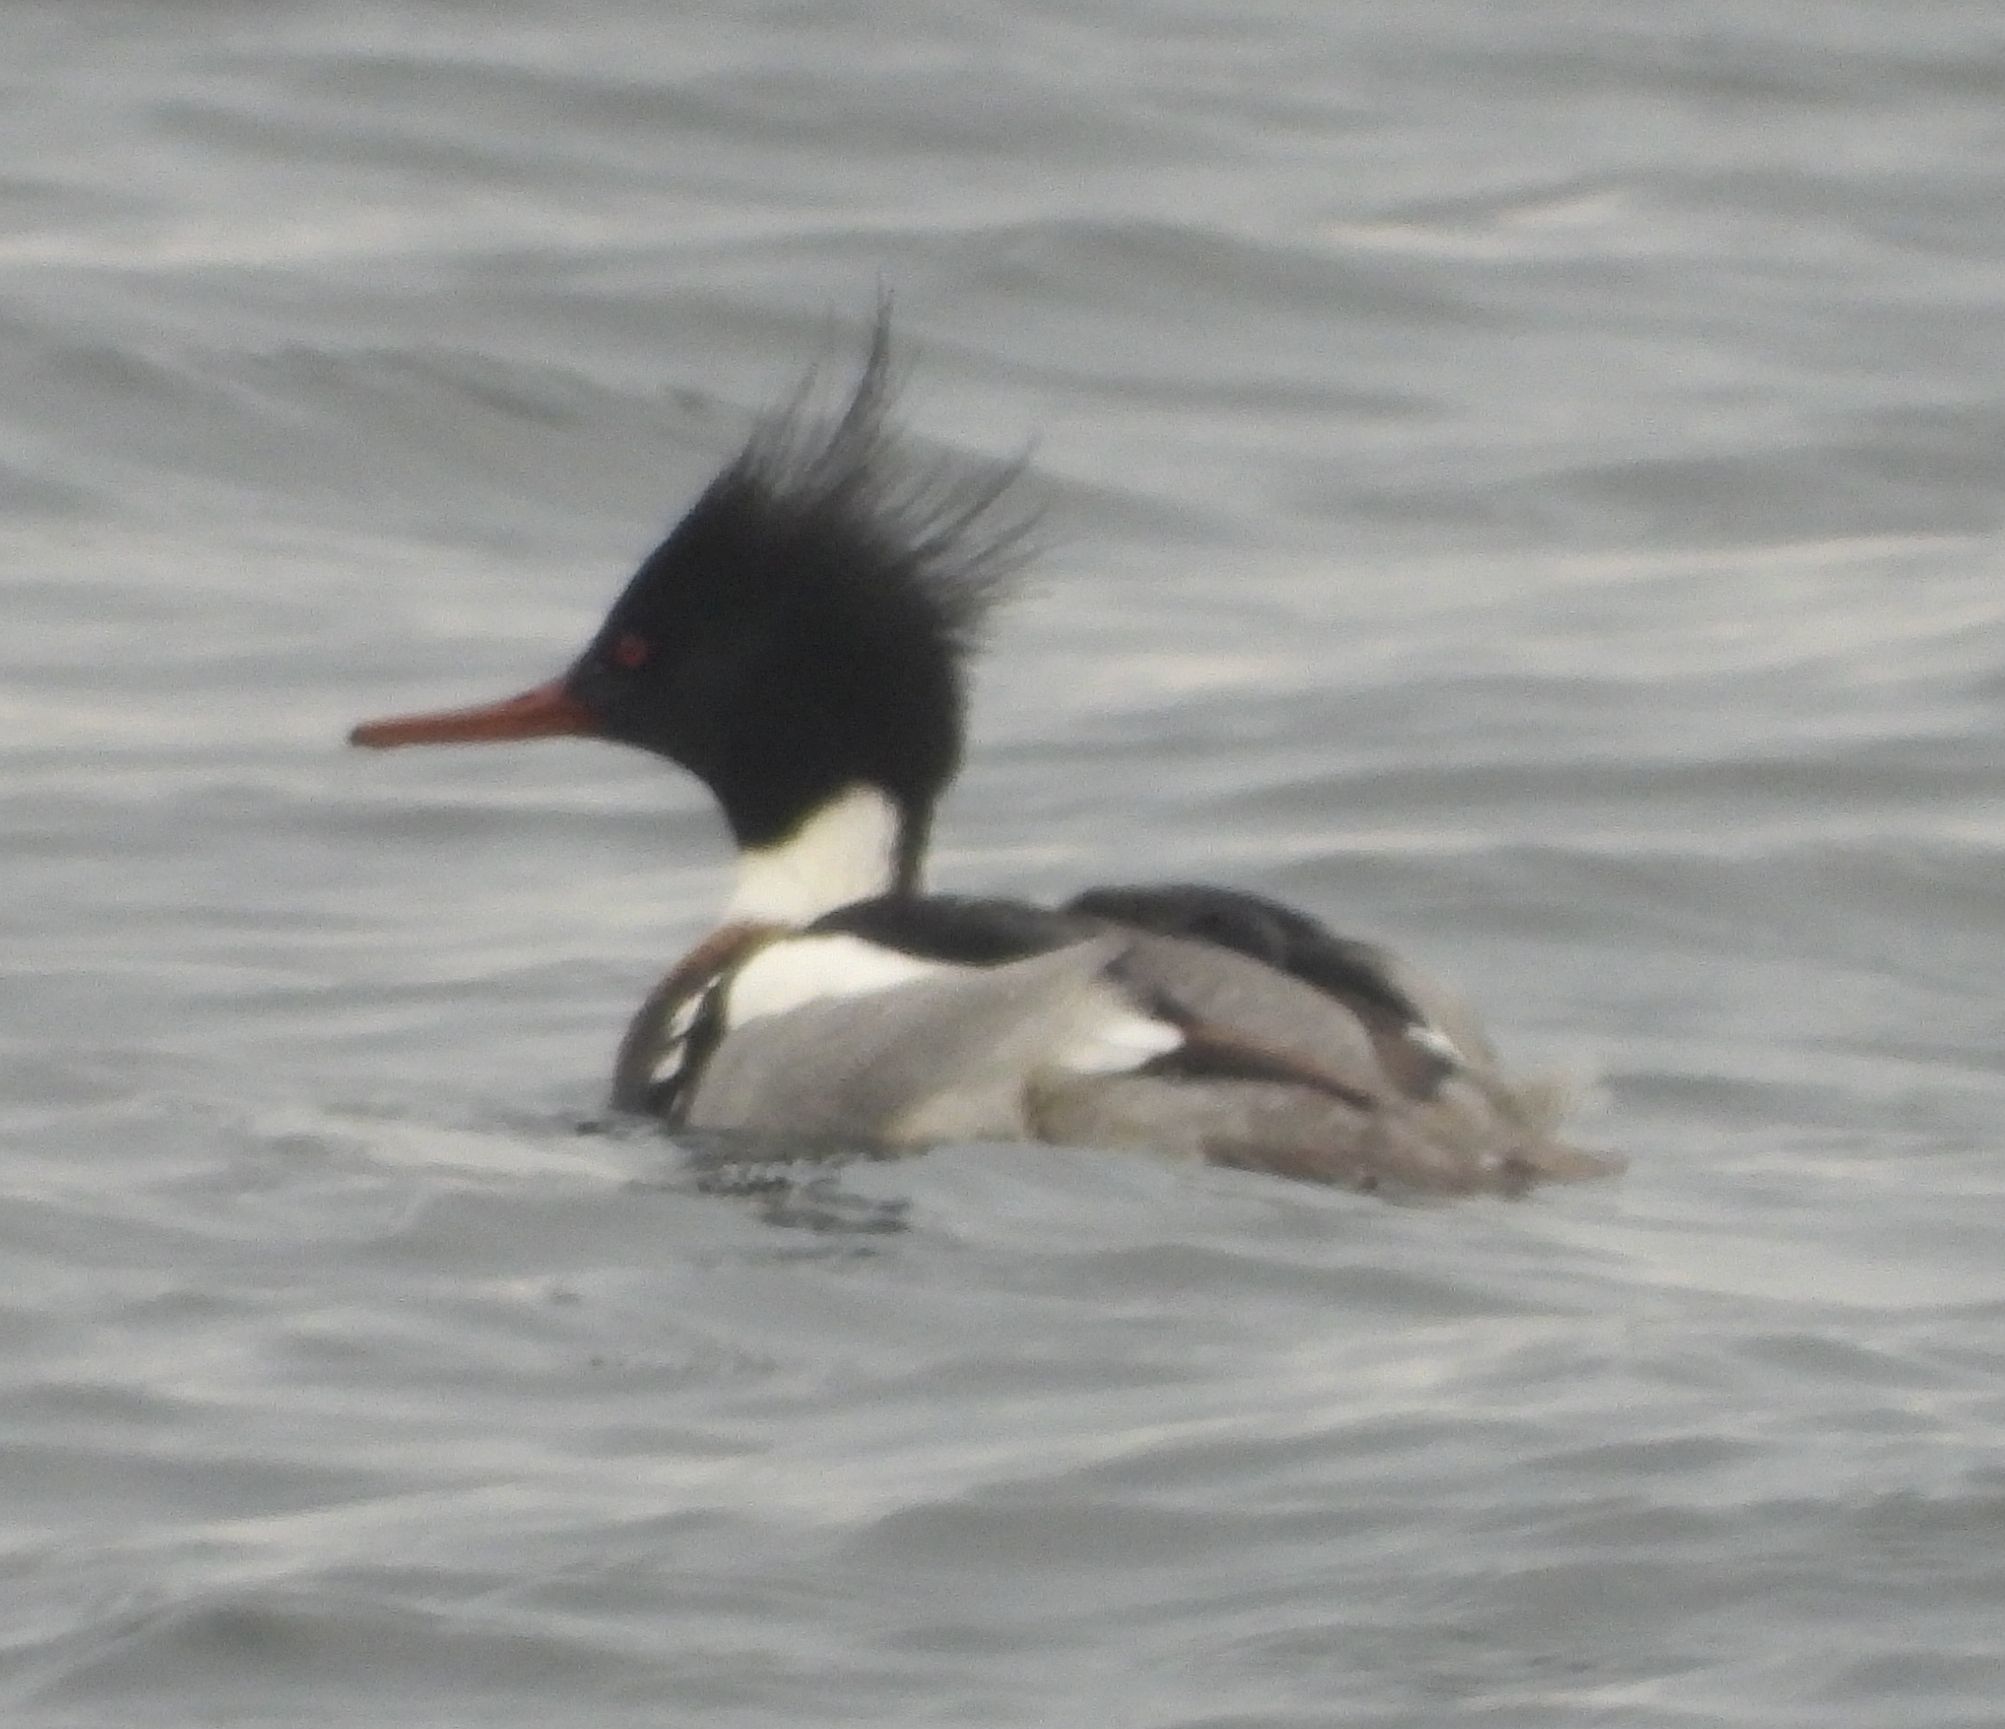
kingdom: Animalia
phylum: Chordata
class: Aves
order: Anseriformes
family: Anatidae
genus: Mergus
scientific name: Mergus serrator
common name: Red-breasted merganser
